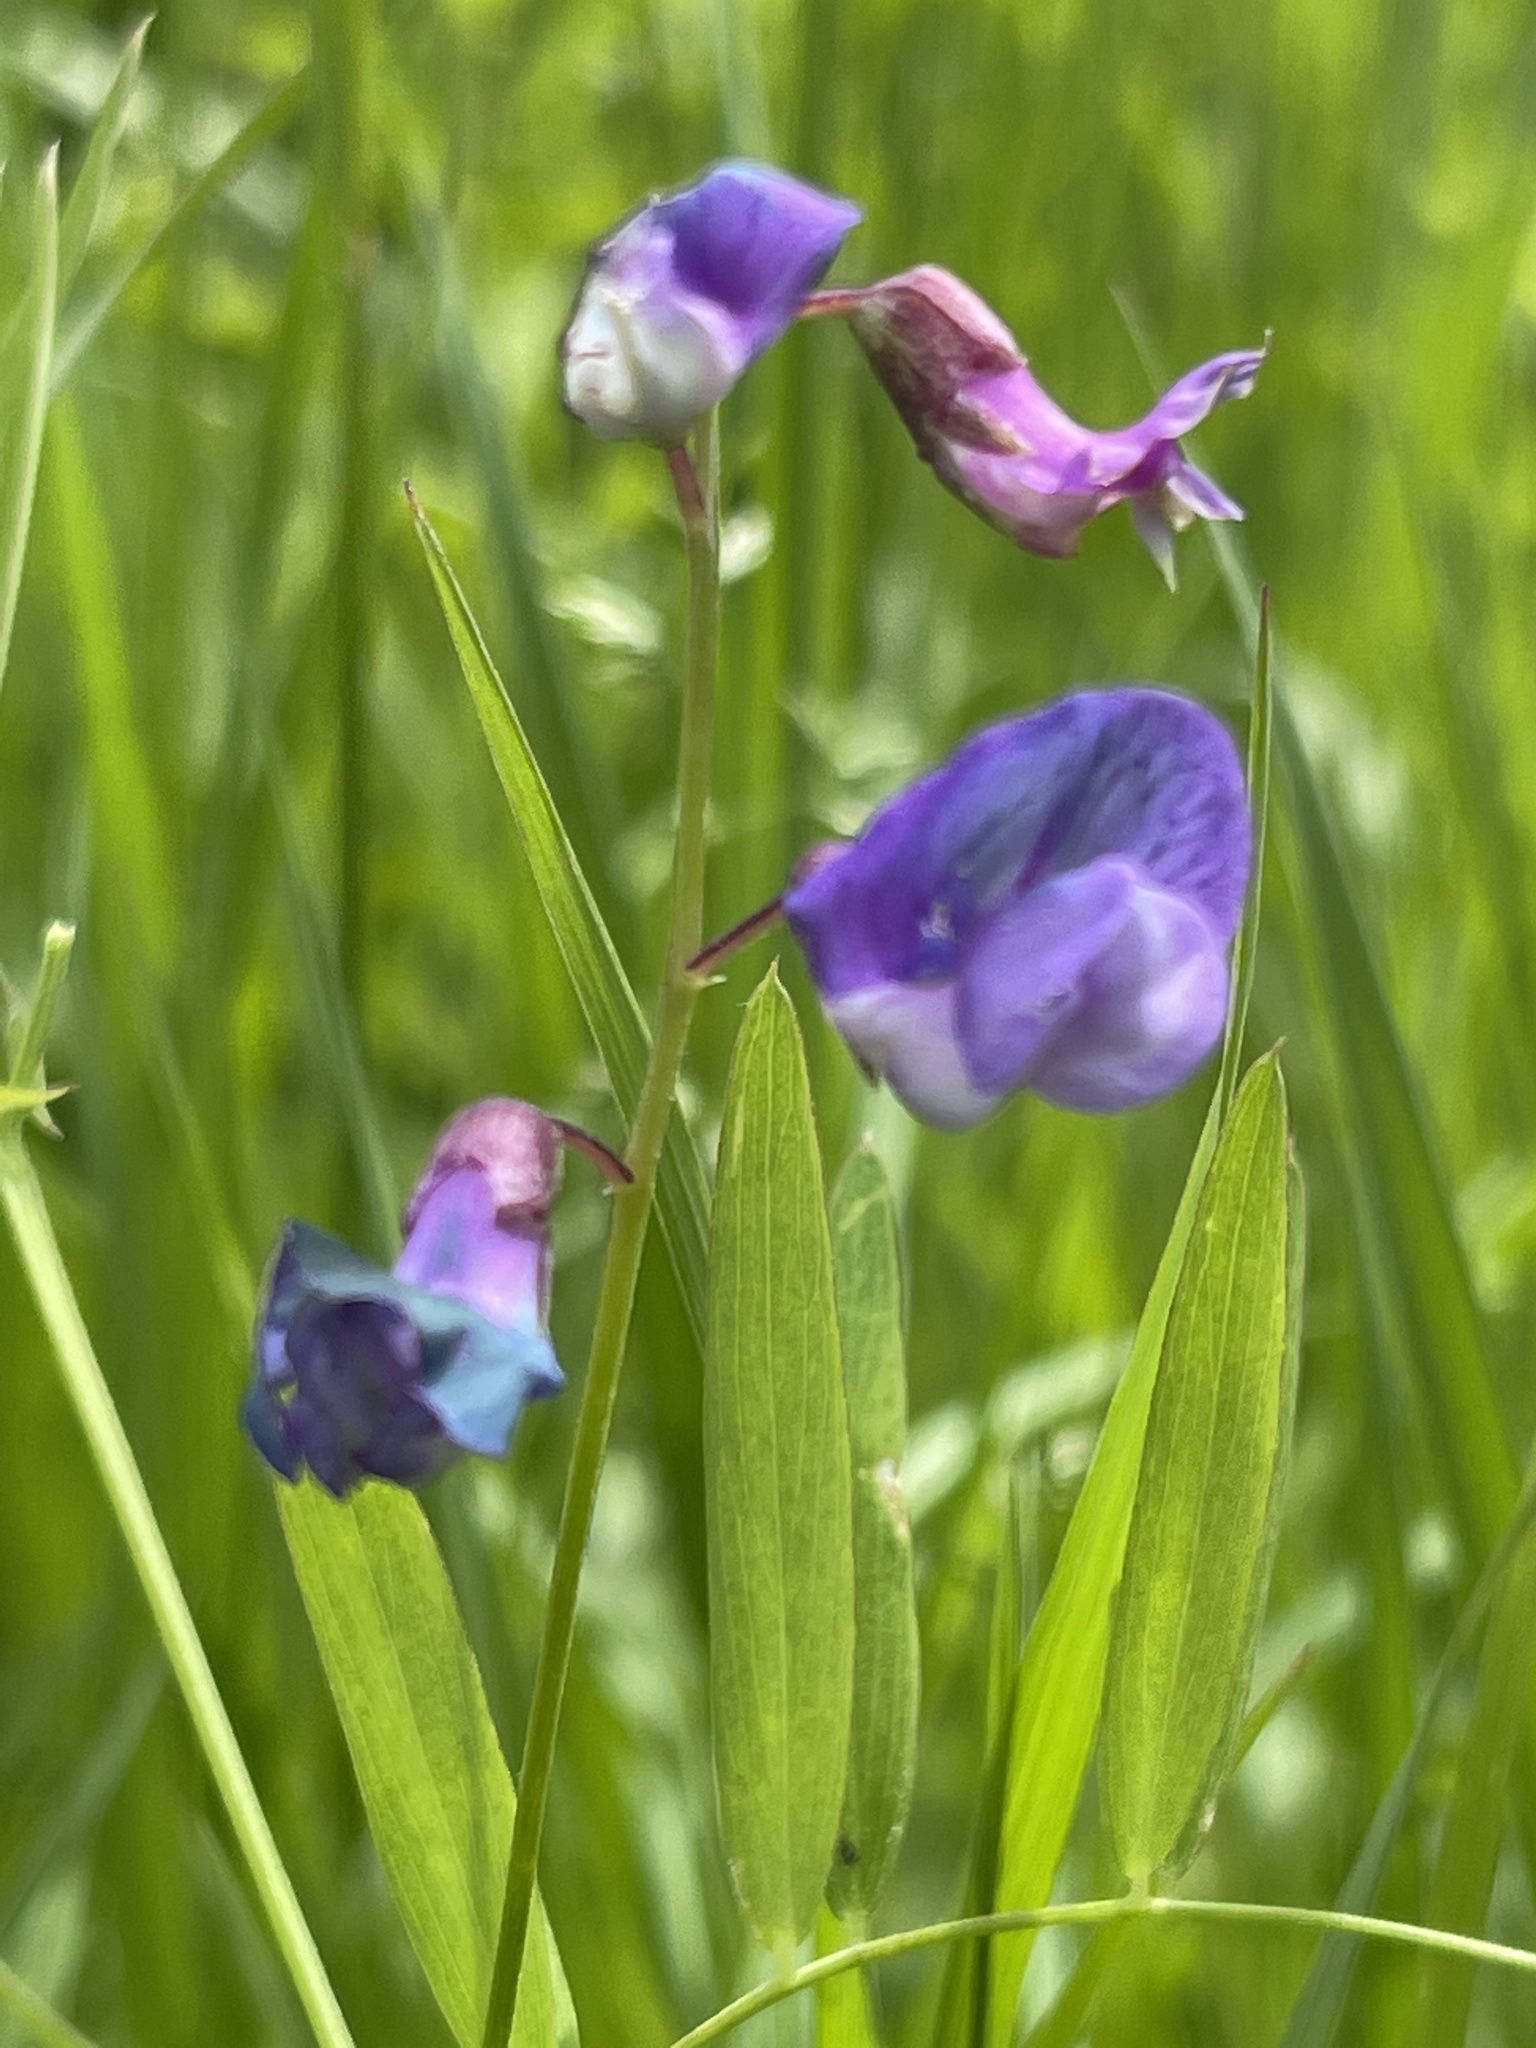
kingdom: Plantae
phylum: Tracheophyta
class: Magnoliopsida
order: Fabales
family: Fabaceae
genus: Lathyrus
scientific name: Lathyrus palustris
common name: Marsh pea
